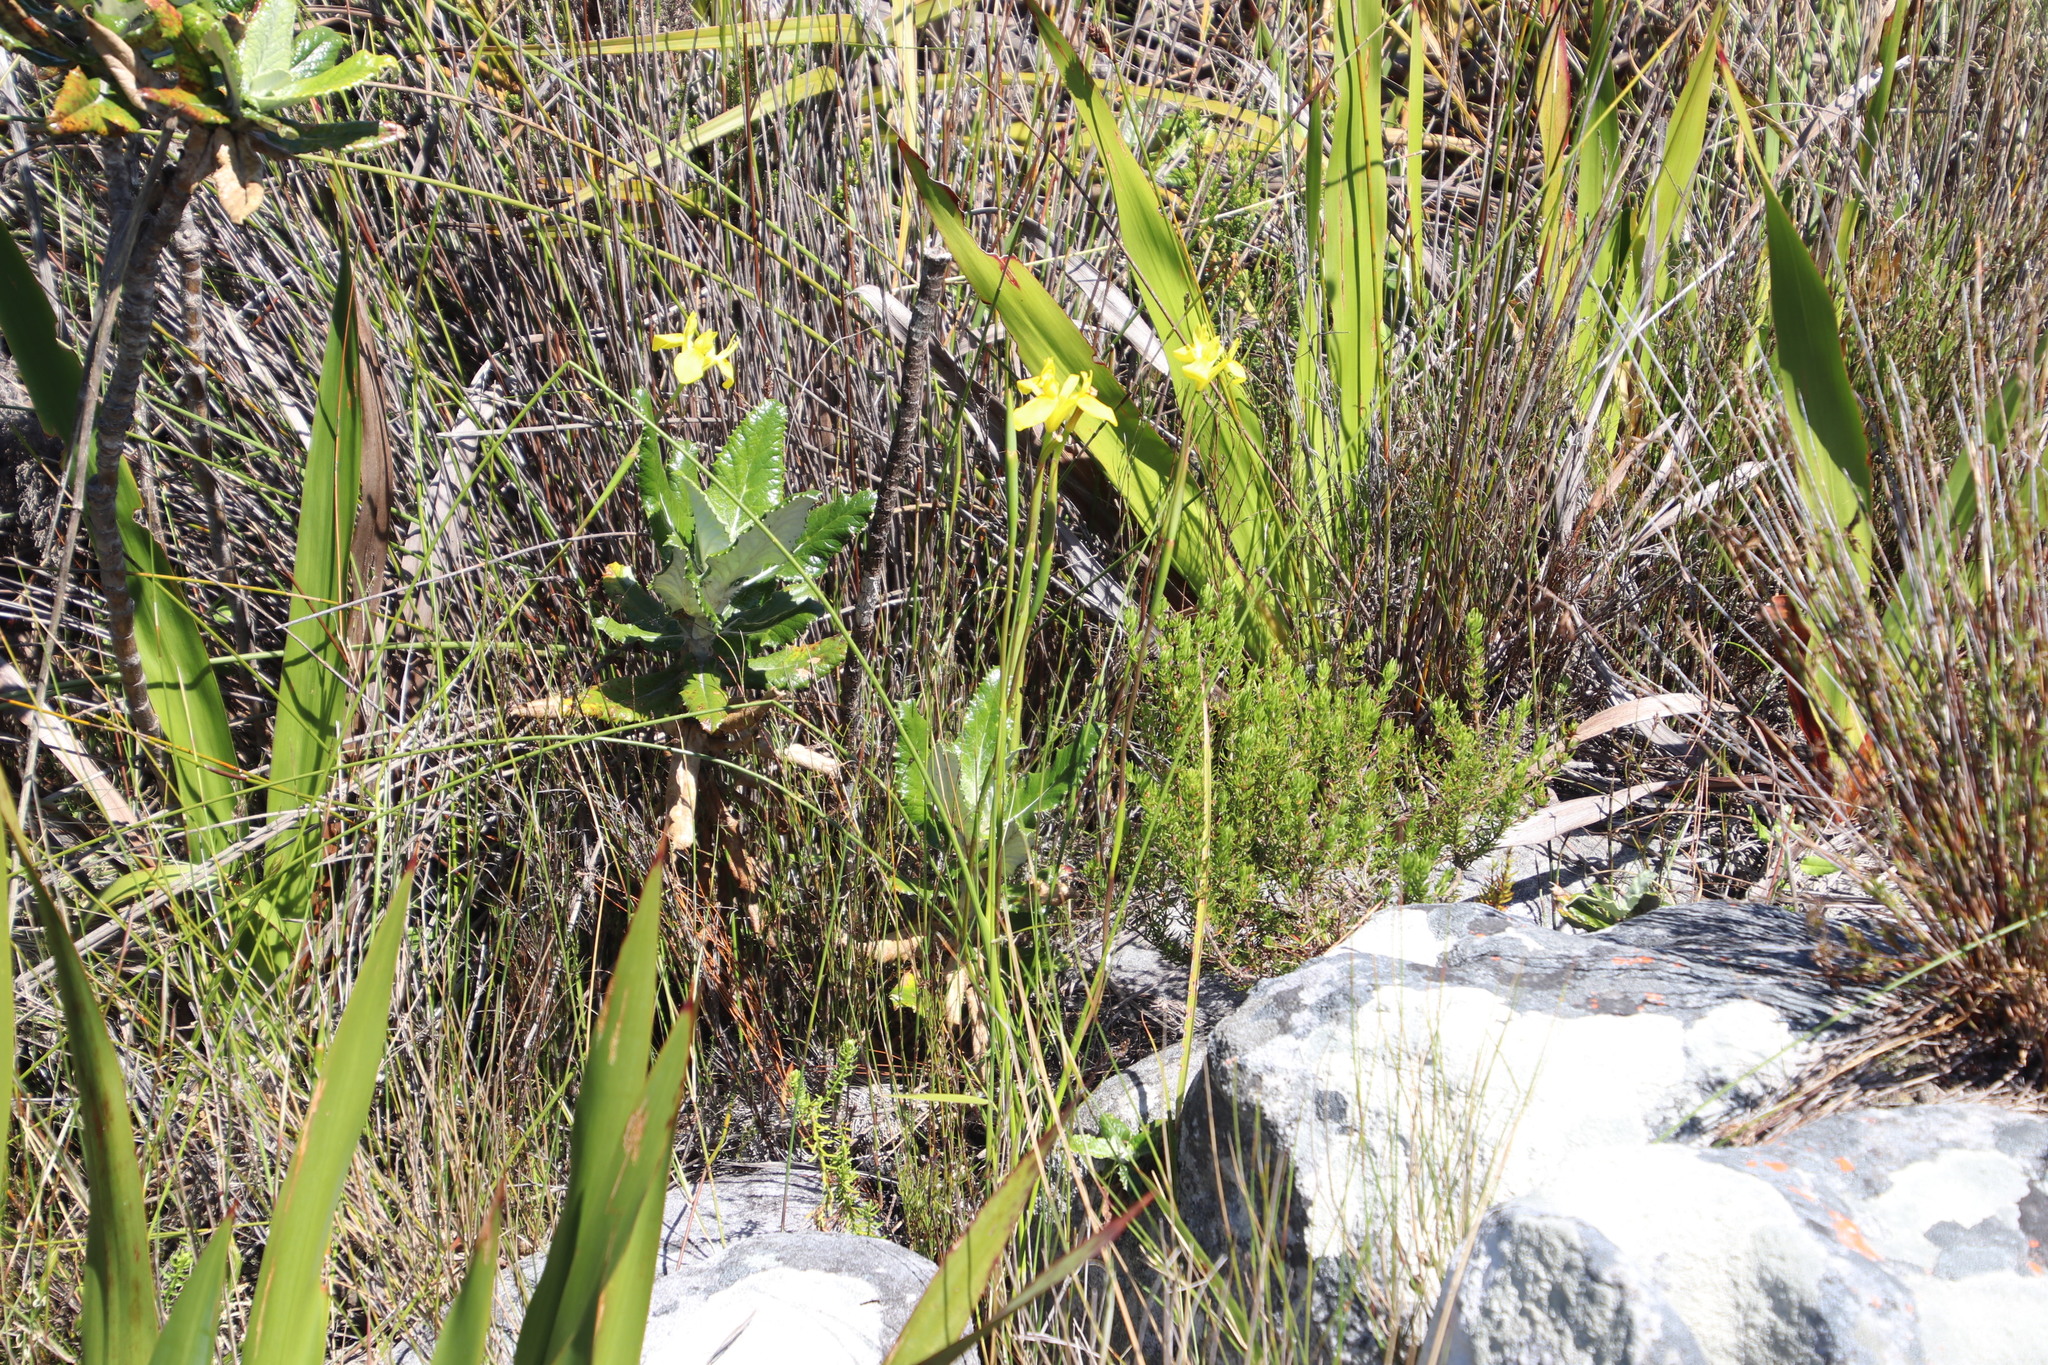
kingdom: Plantae
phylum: Tracheophyta
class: Liliopsida
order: Asparagales
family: Iridaceae
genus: Moraea
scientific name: Moraea neglecta
